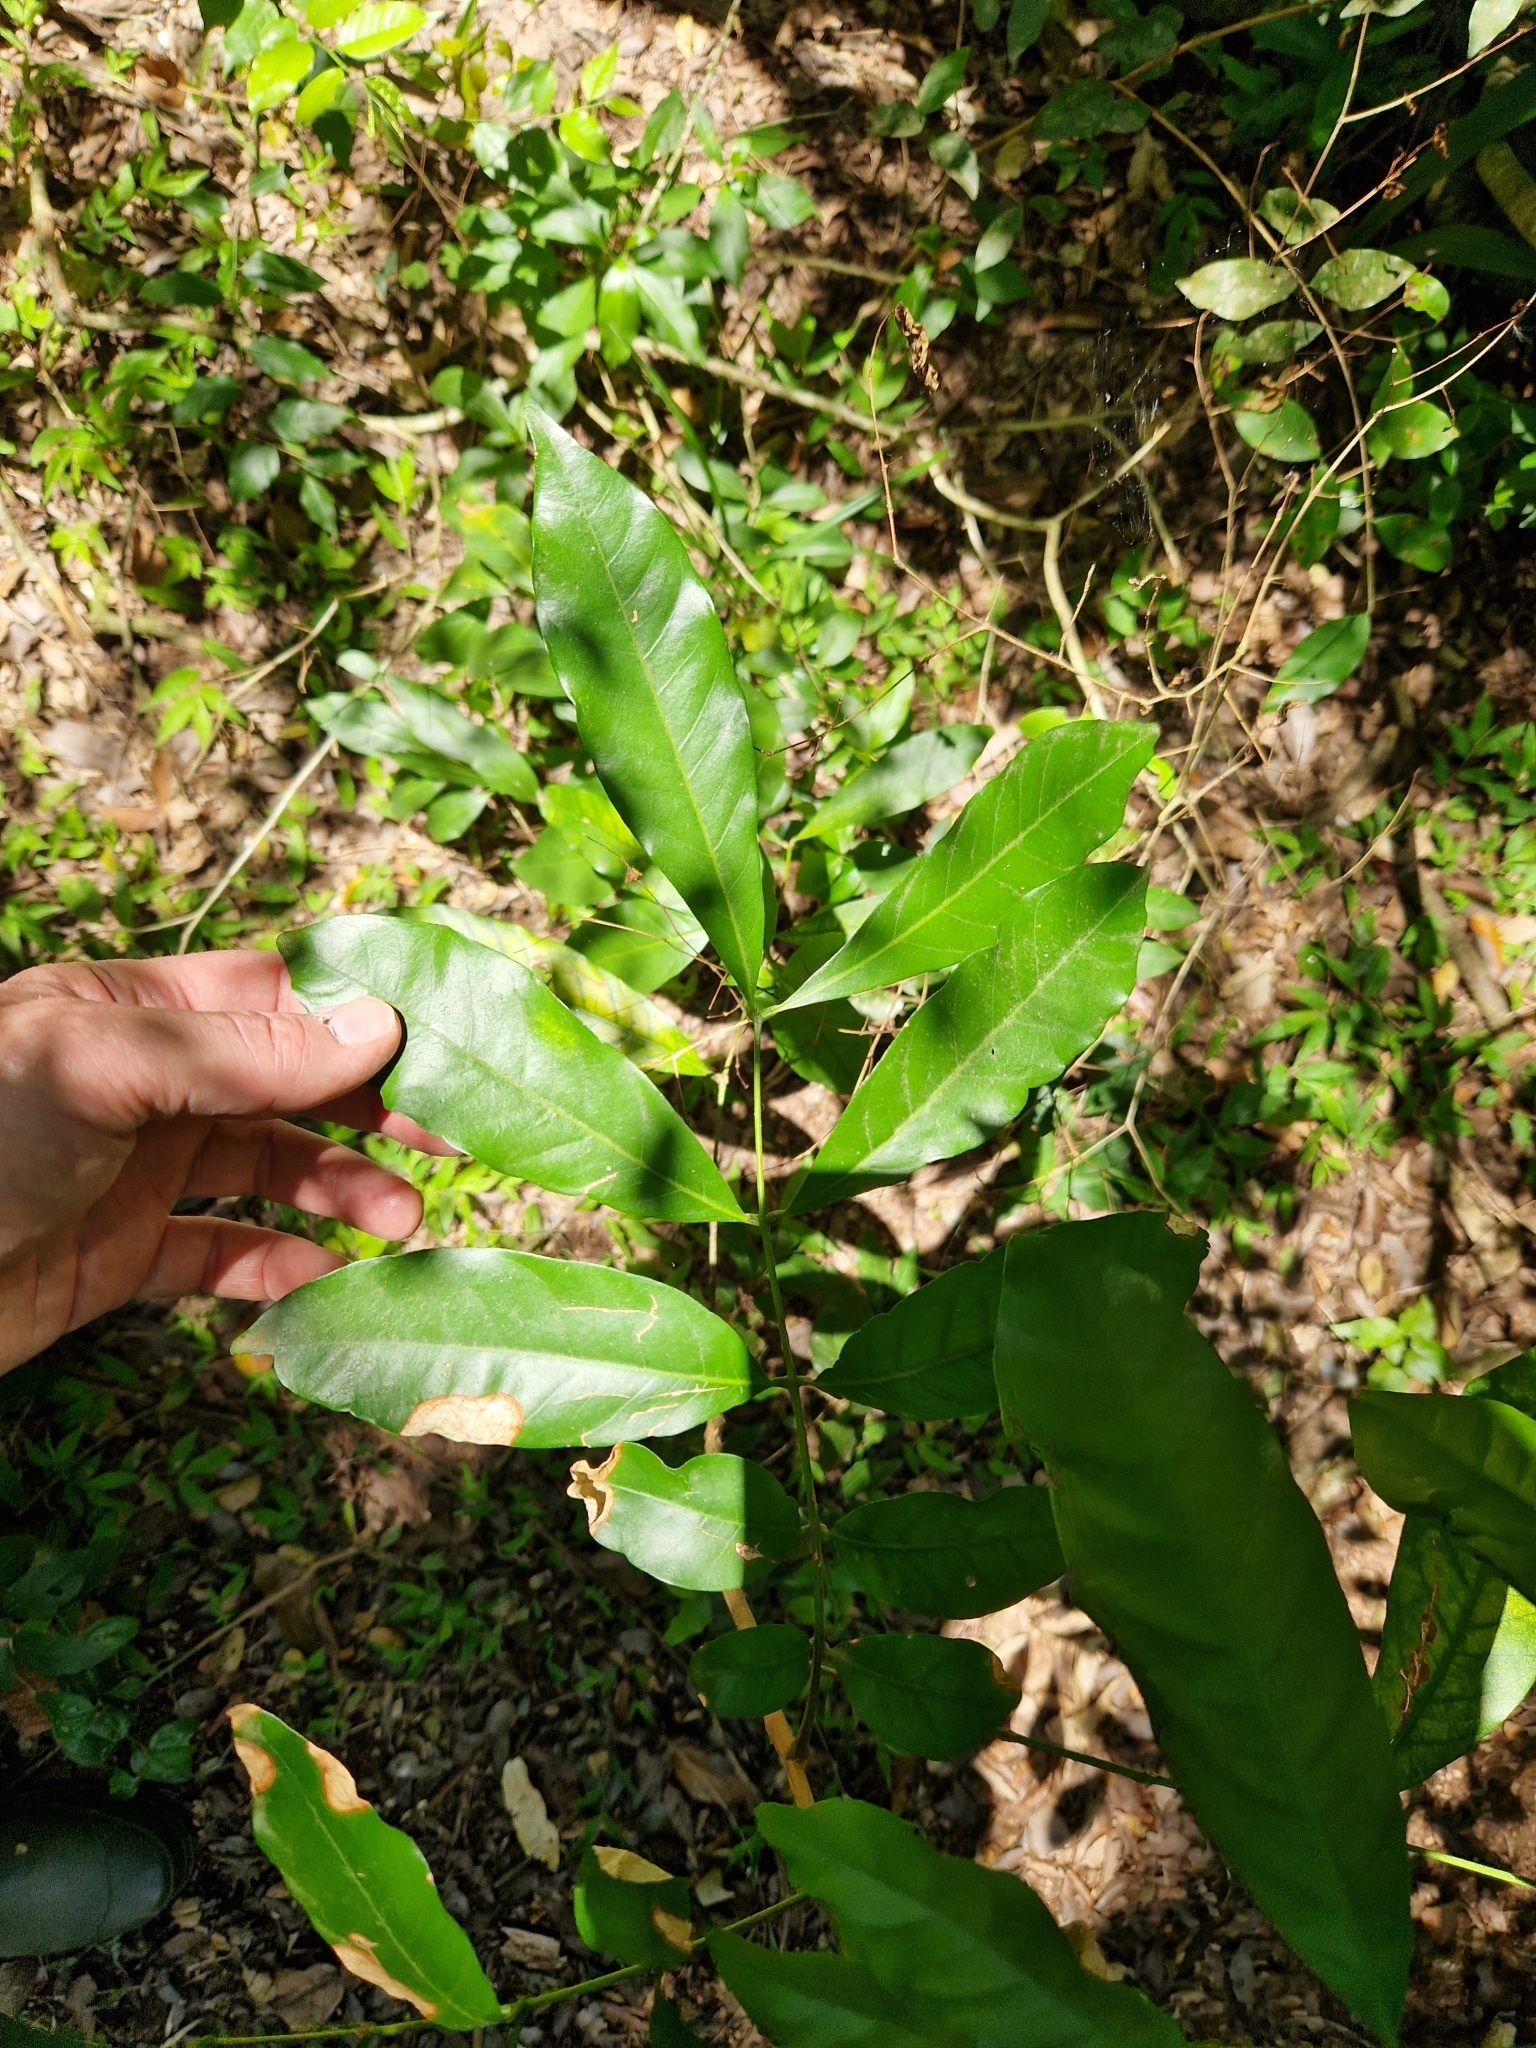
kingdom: Plantae
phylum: Tracheophyta
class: Magnoliopsida
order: Sapindales
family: Meliaceae
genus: Guarea
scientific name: Guarea macrophylla
